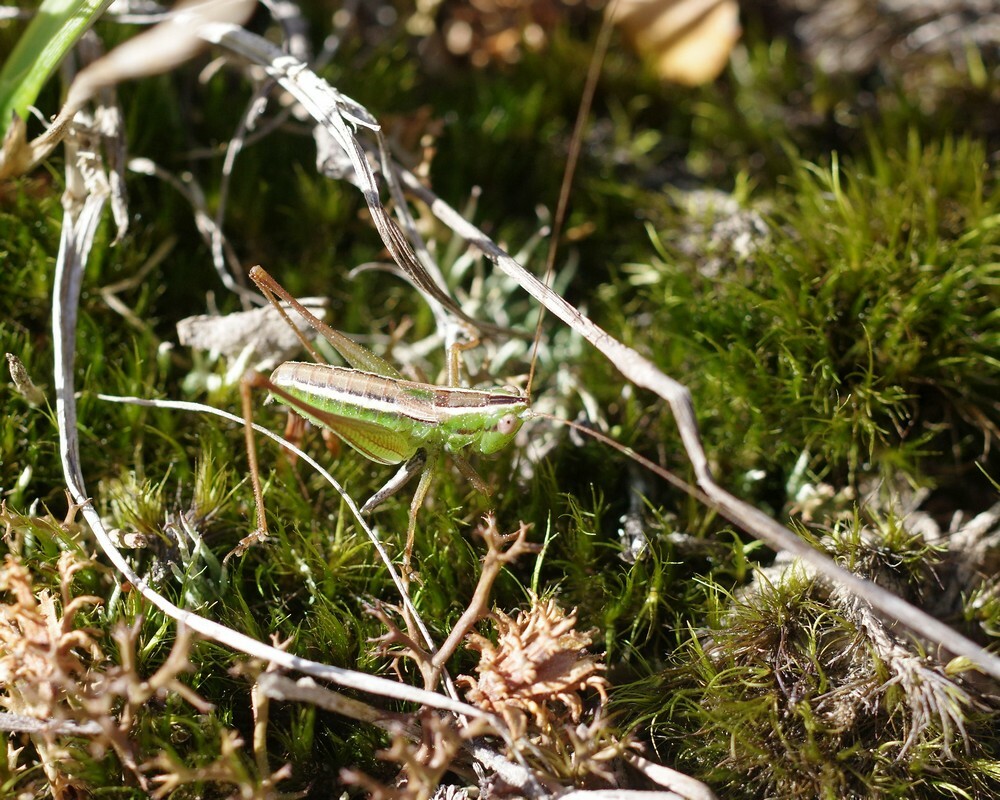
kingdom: Animalia
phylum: Arthropoda
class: Insecta
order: Orthoptera
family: Tettigoniidae
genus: Conocephalus
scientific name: Conocephalus bilineatus
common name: Small meadow katydid
